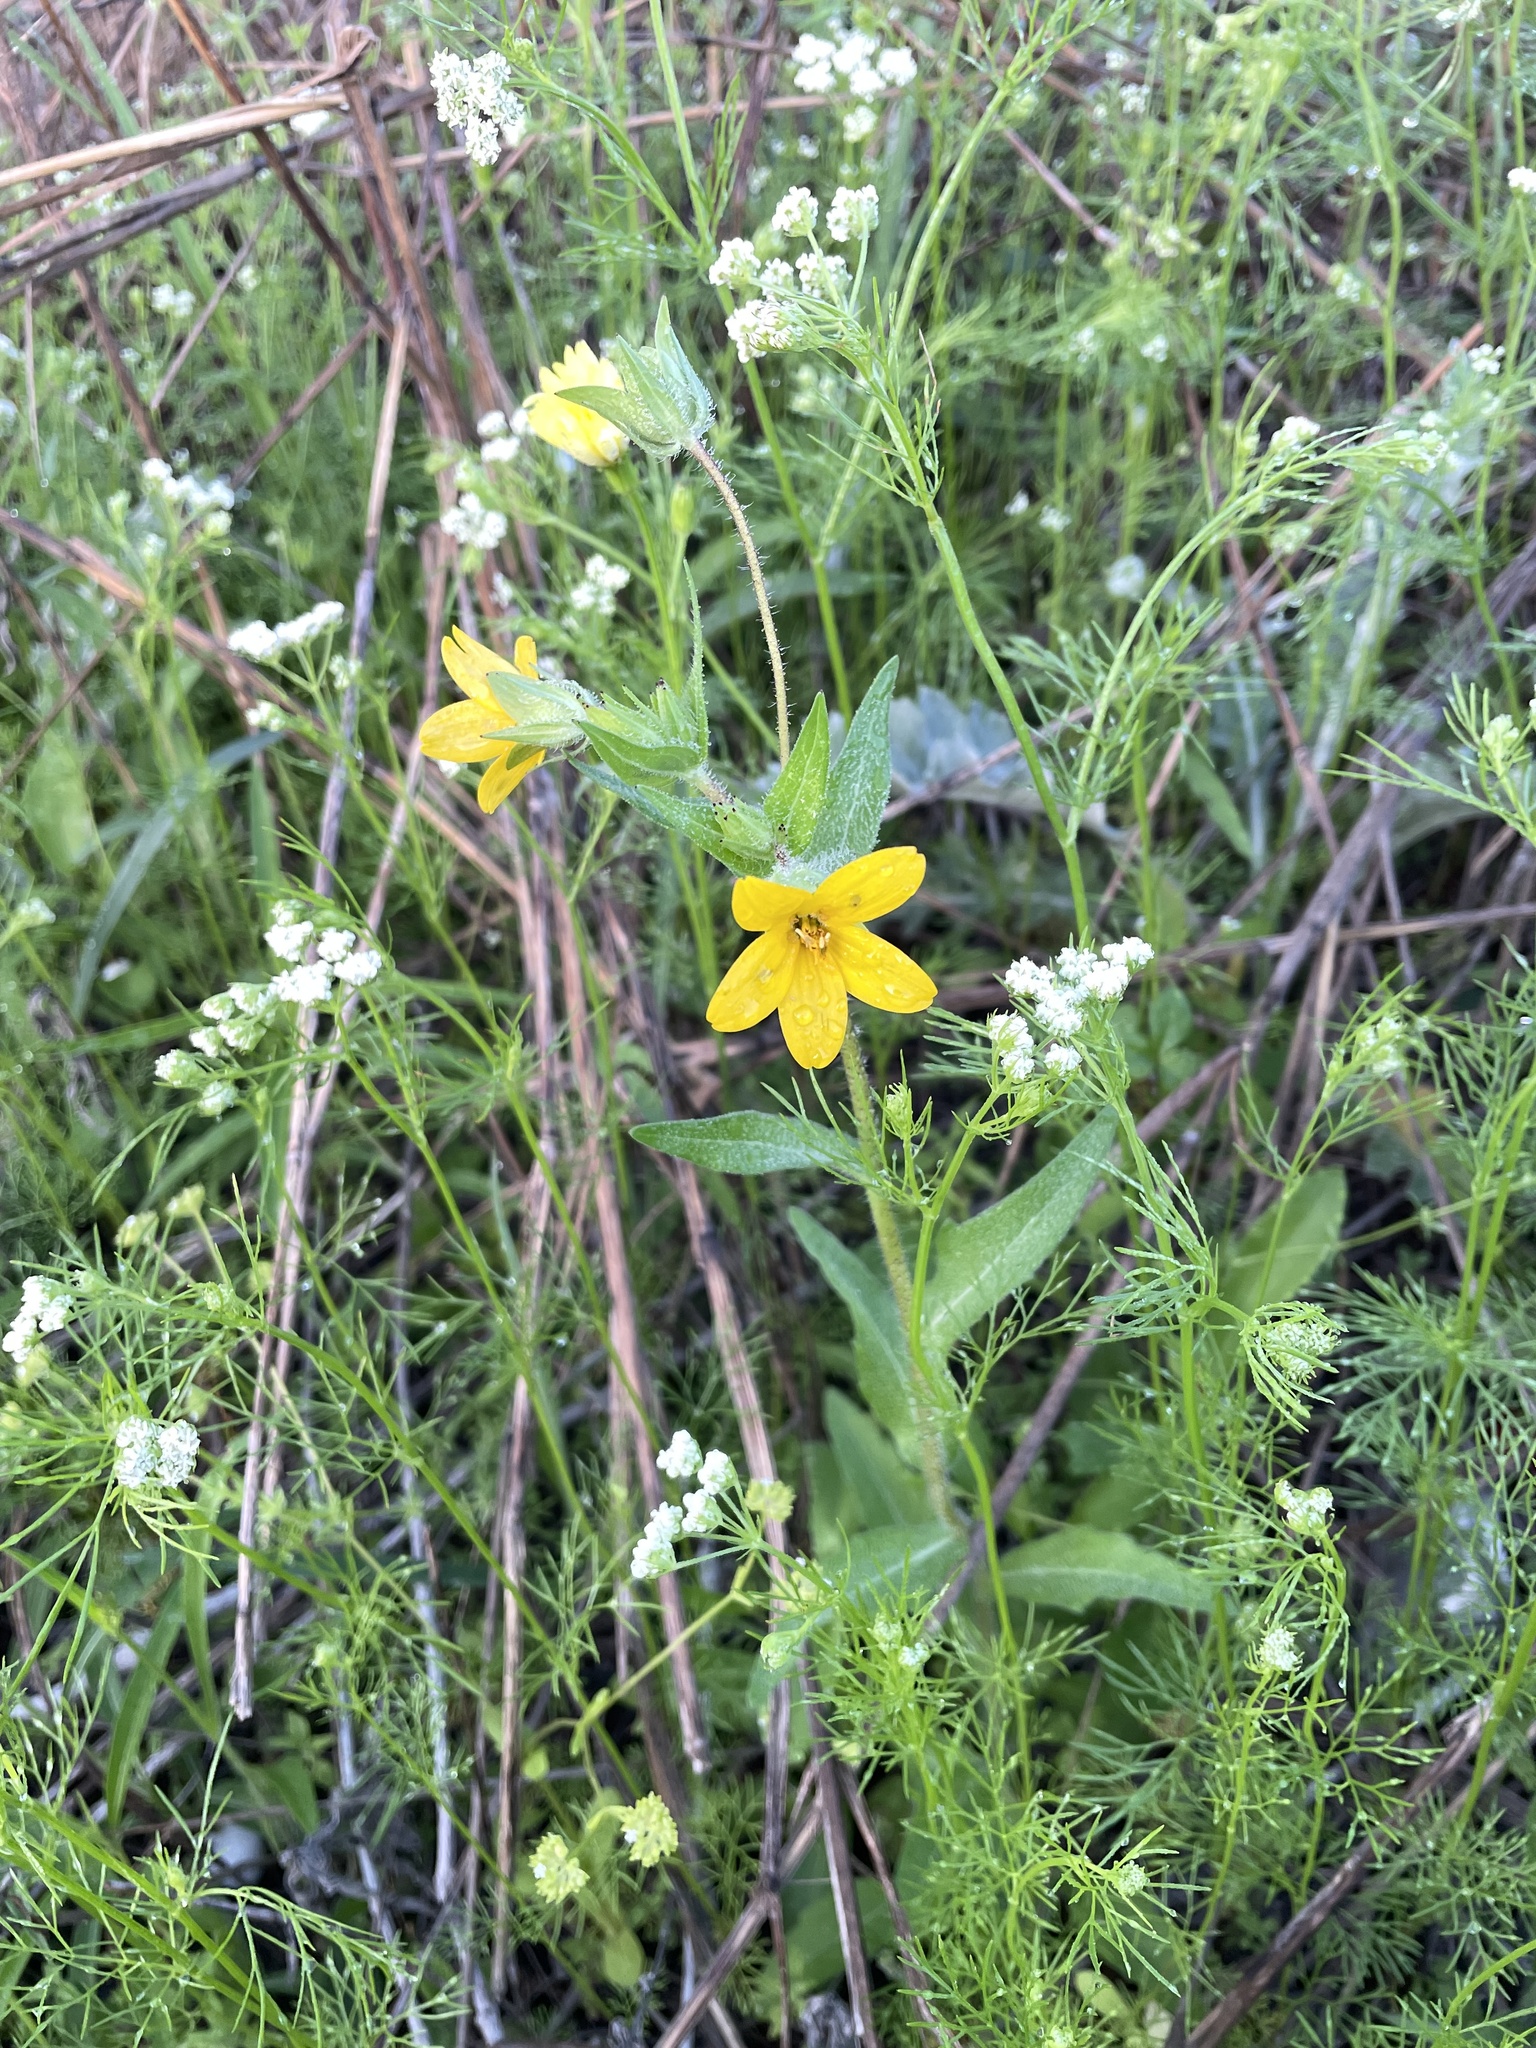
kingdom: Plantae
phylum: Tracheophyta
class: Magnoliopsida
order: Asterales
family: Asteraceae
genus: Lindheimera
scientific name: Lindheimera texana
